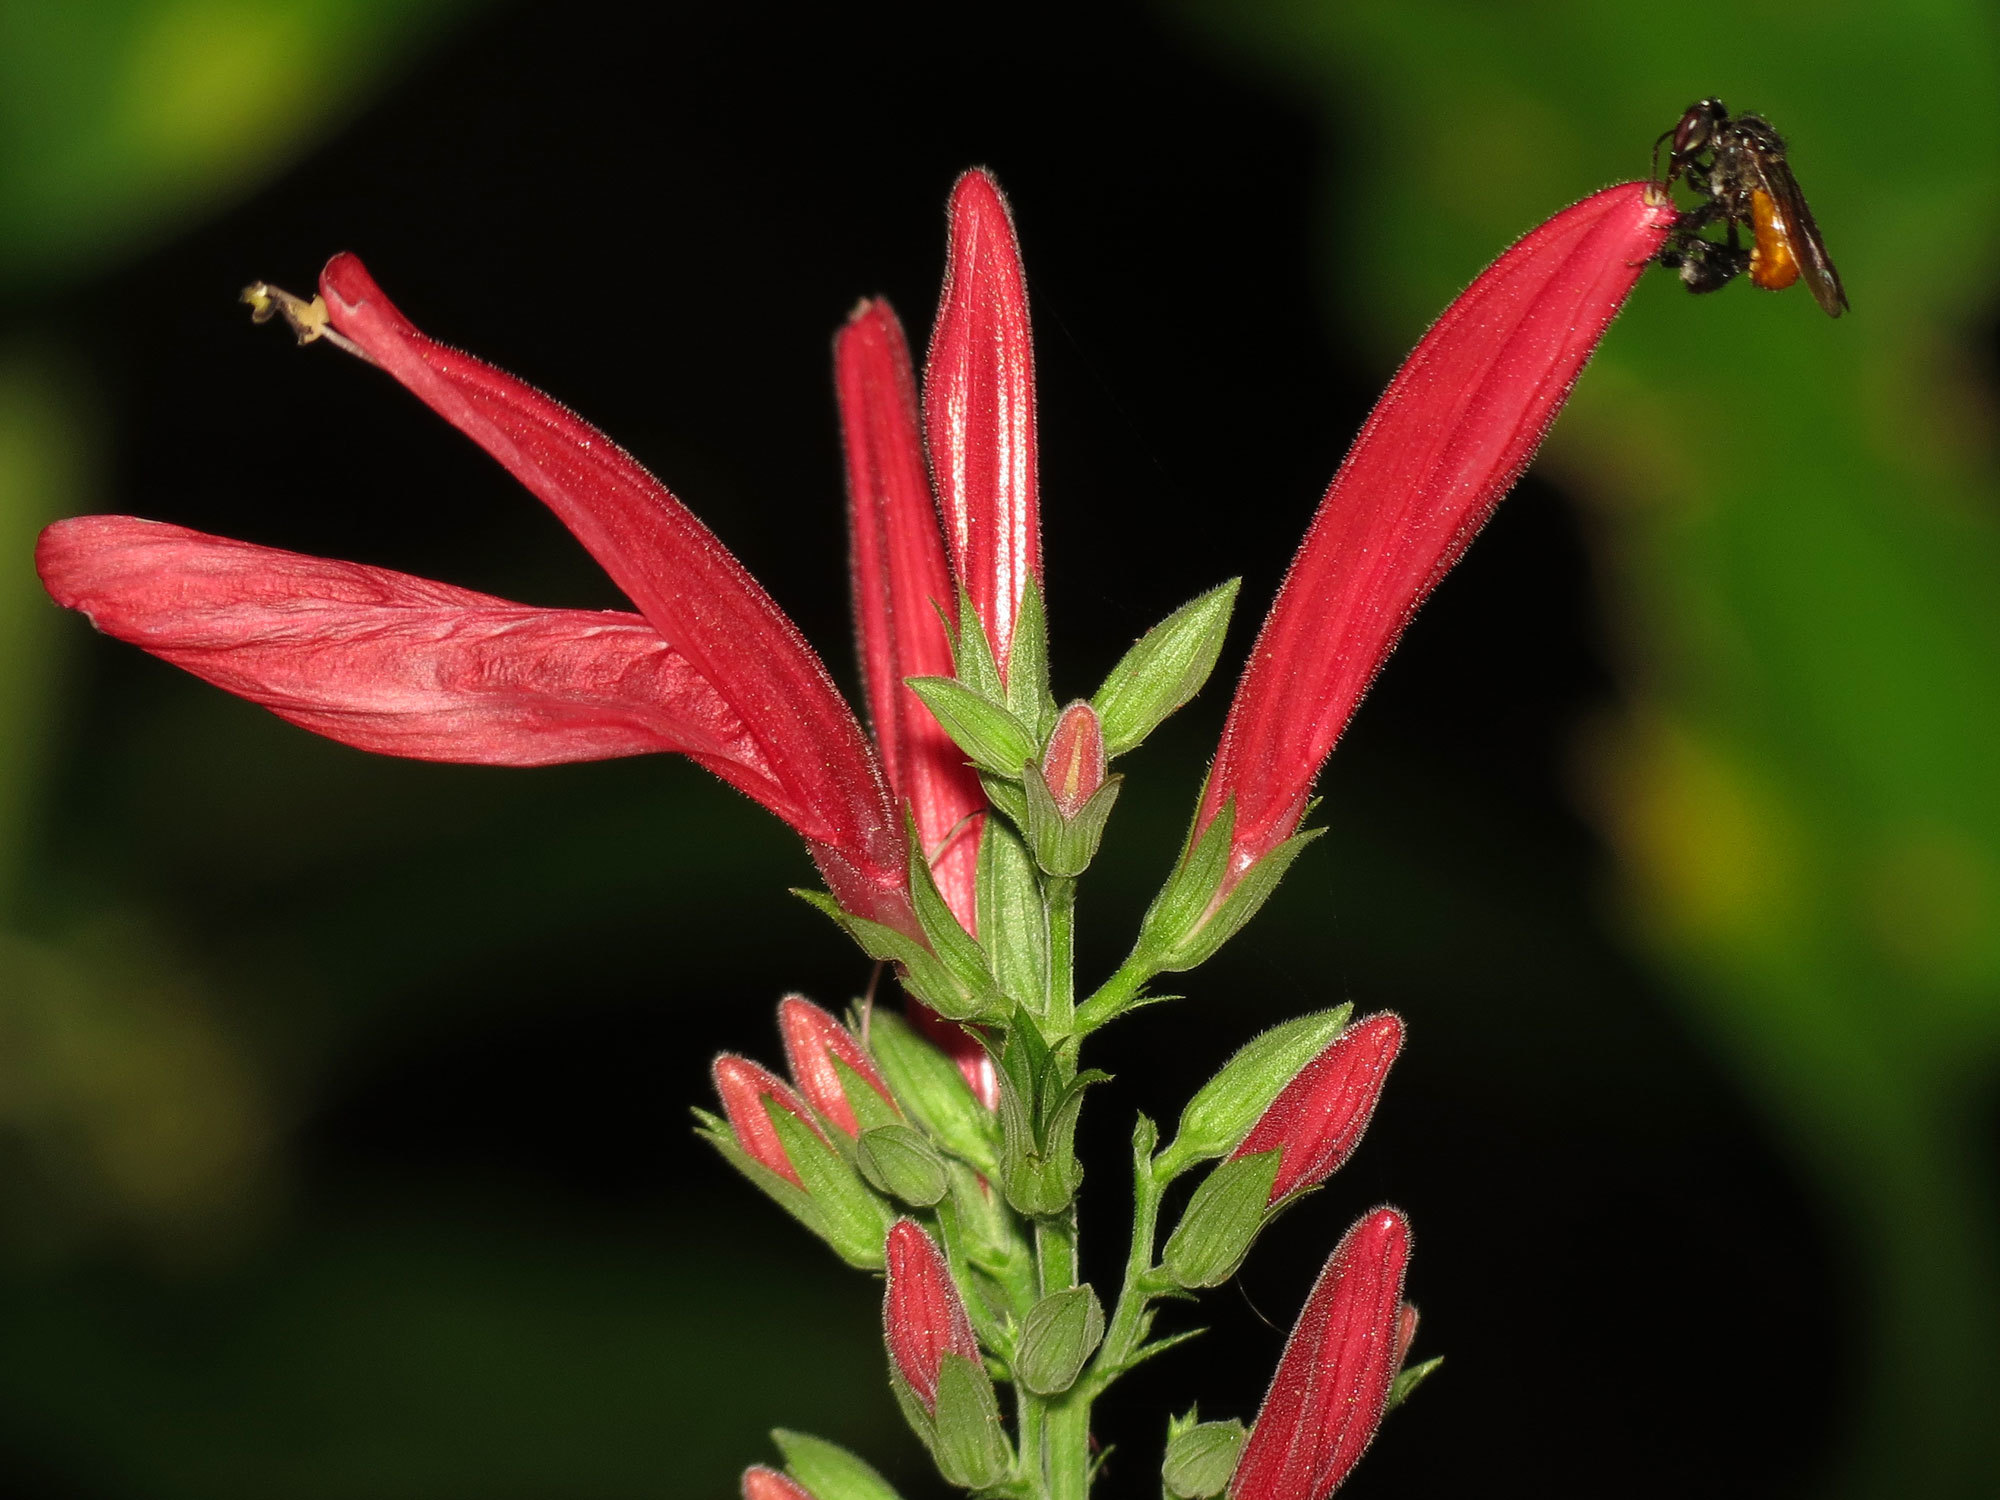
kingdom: Animalia
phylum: Arthropoda
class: Insecta
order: Hymenoptera
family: Apidae
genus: Trigona
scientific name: Trigona fulviventris
